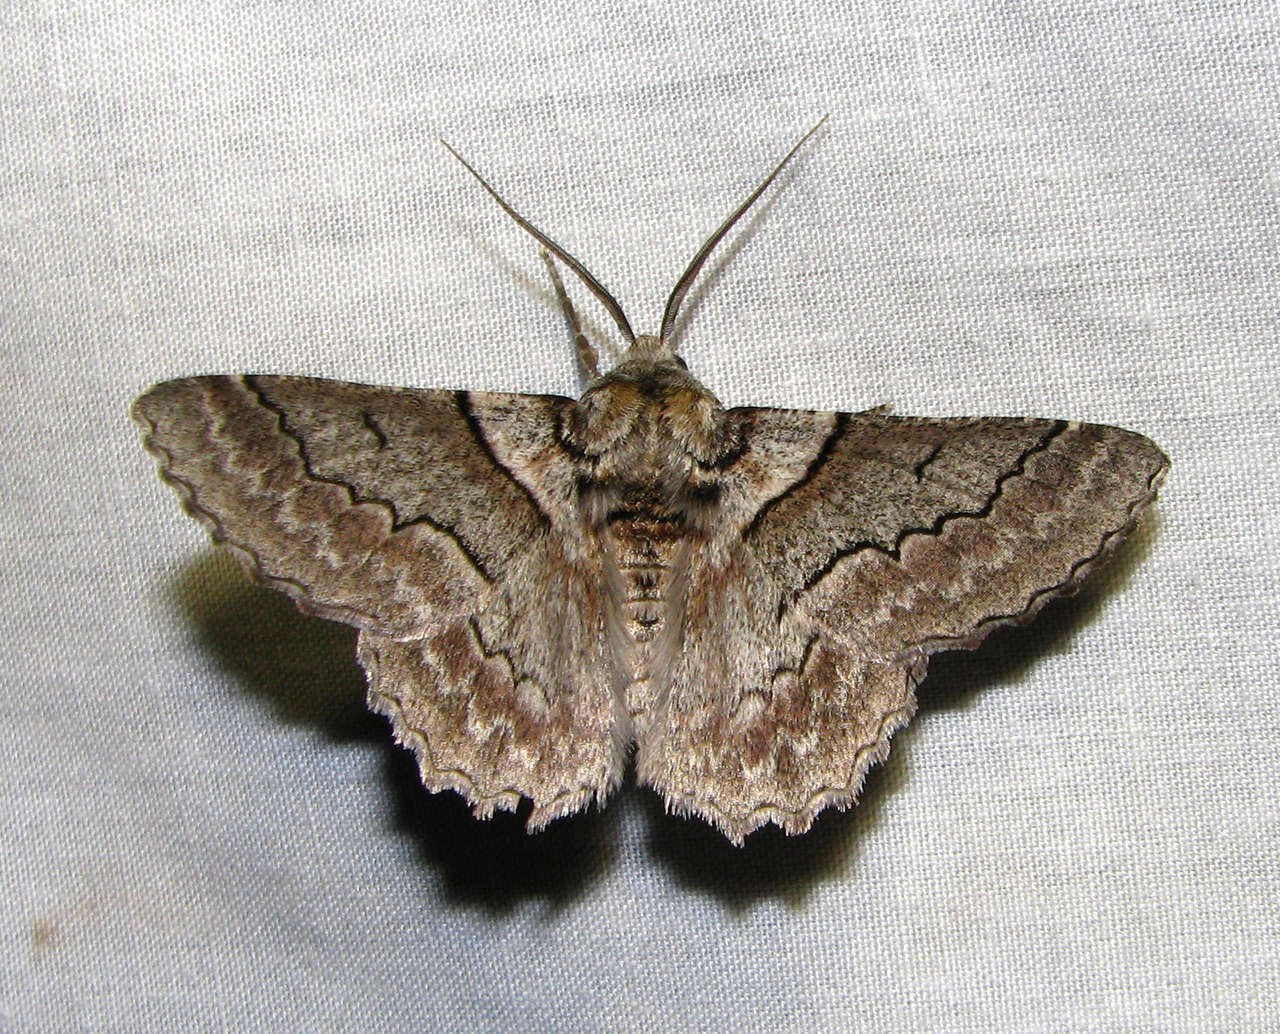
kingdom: Animalia
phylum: Arthropoda
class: Insecta
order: Lepidoptera
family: Geometridae
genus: Hypobapta
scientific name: Hypobapta tachyhalotaria
